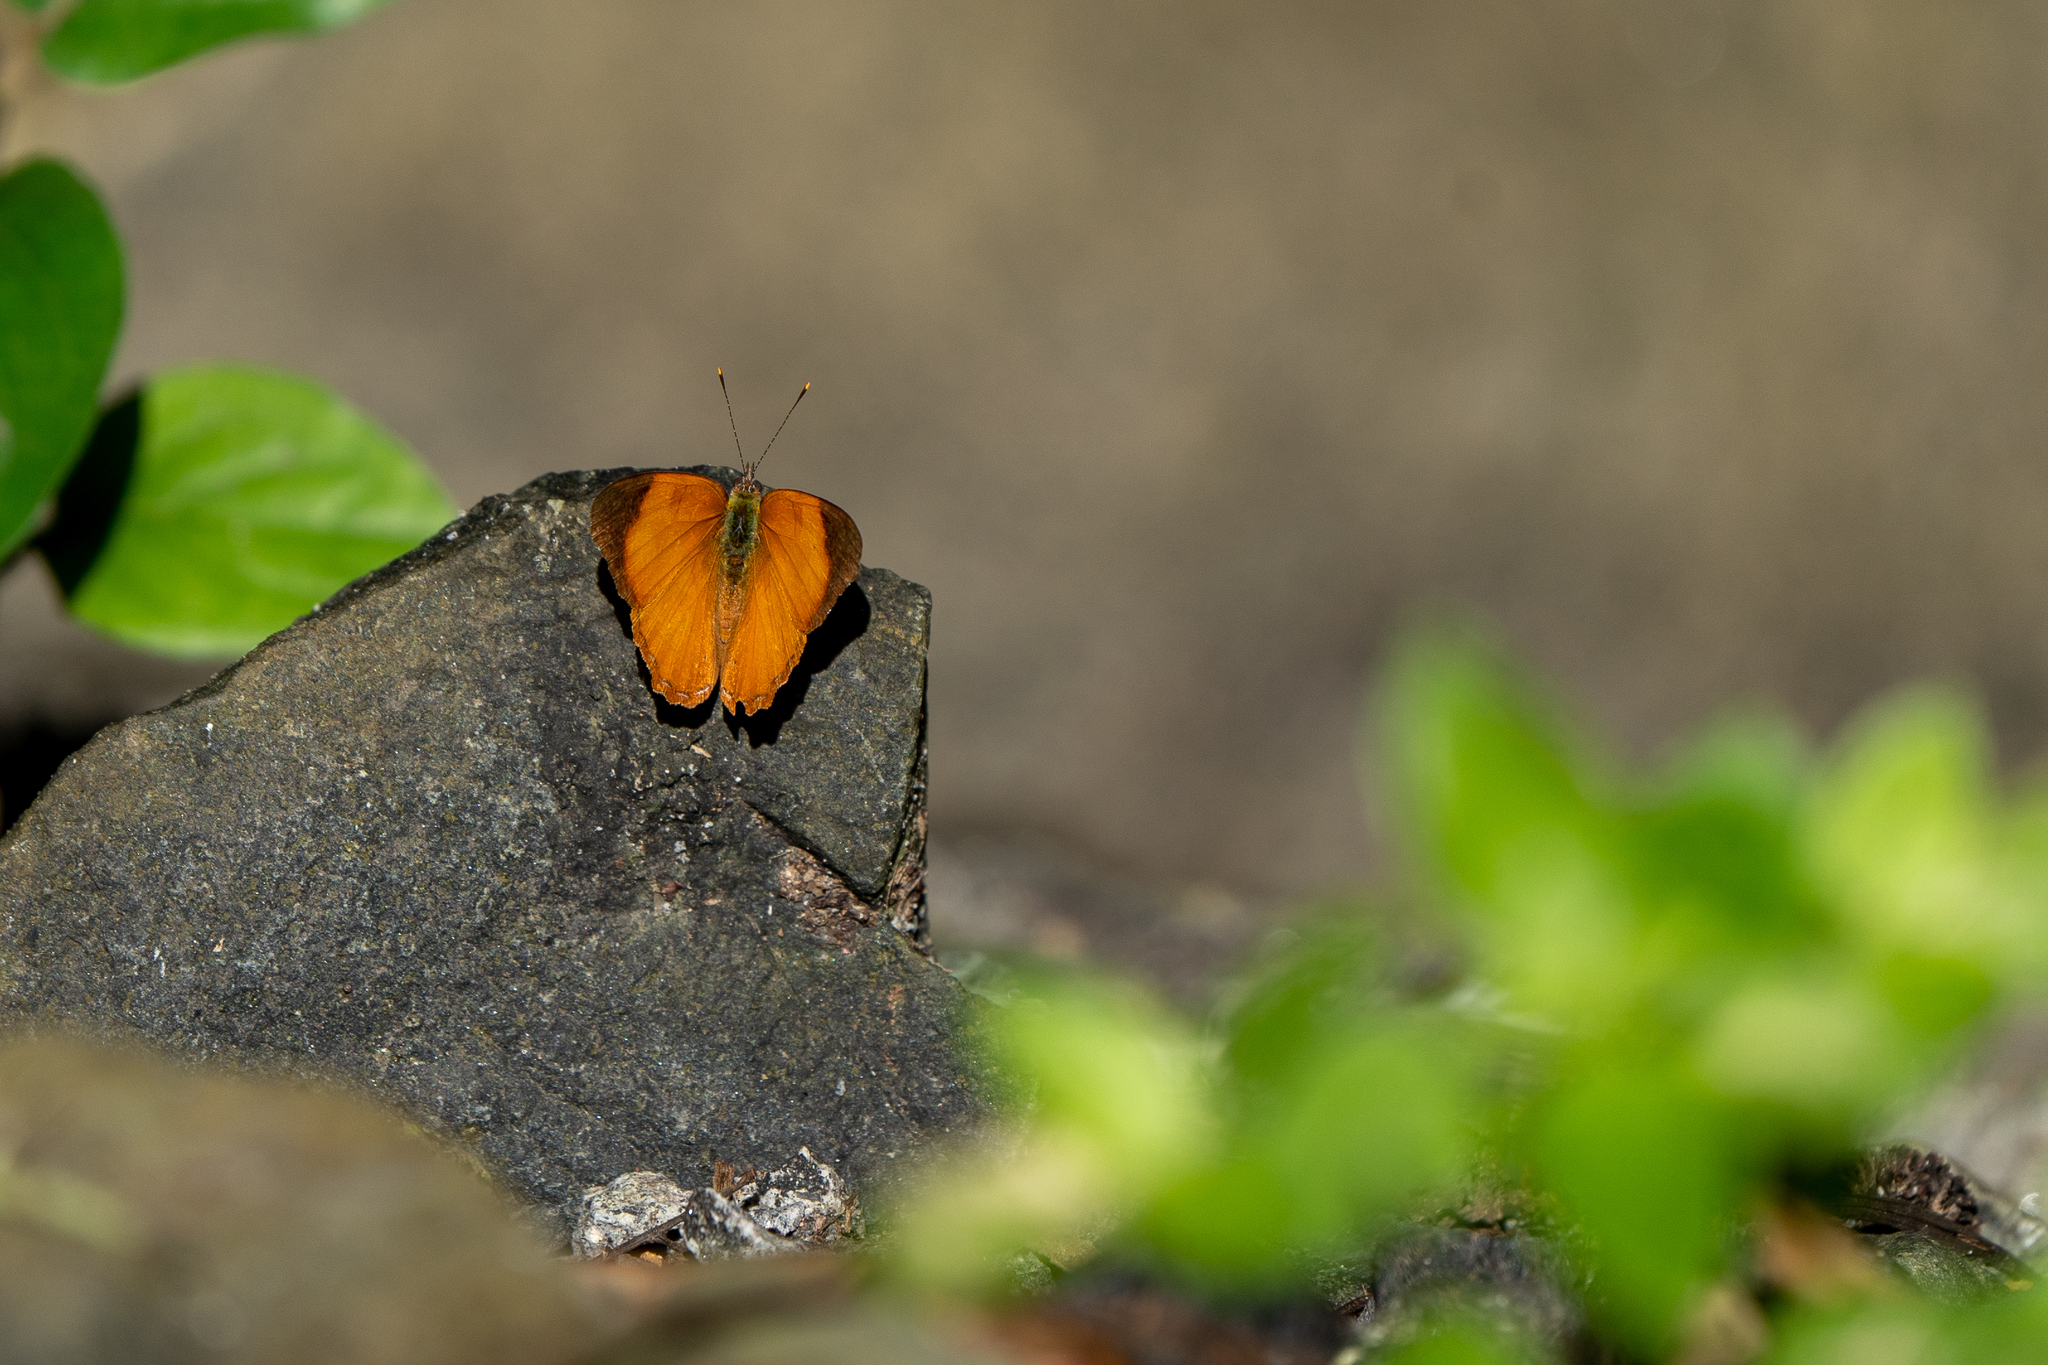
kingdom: Animalia
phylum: Arthropoda
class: Insecta
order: Lepidoptera
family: Nymphalidae
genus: Nica
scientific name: Nica flavilla
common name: Mandarin nica
